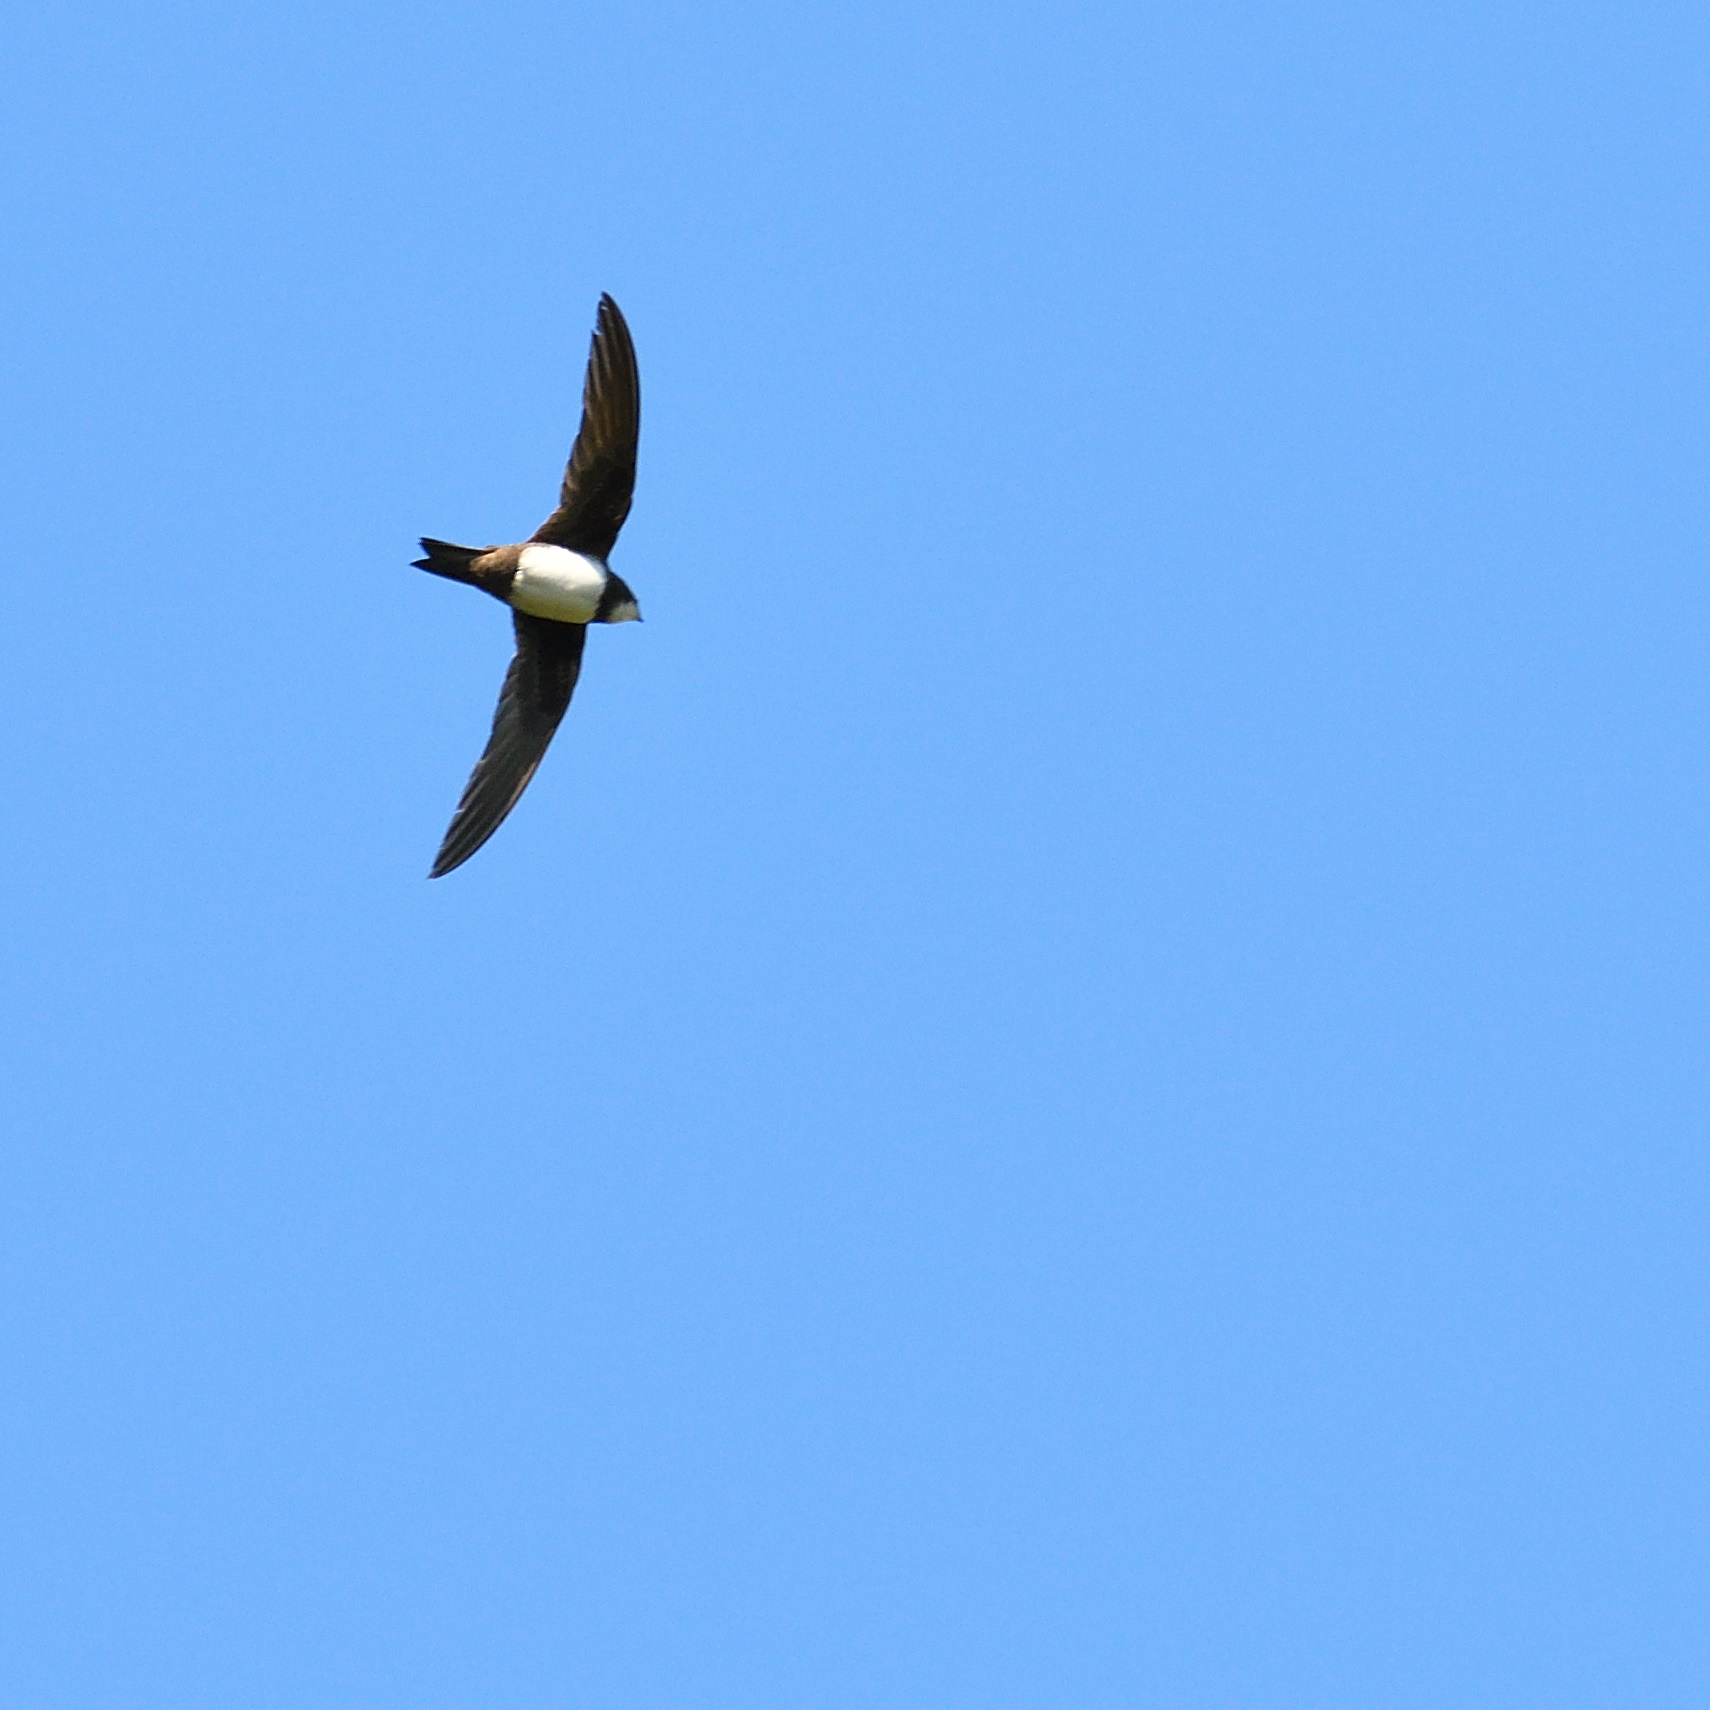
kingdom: Animalia
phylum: Chordata
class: Aves
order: Apodiformes
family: Apodidae
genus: Tachymarptis
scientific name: Tachymarptis melba
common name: Alpine swift
